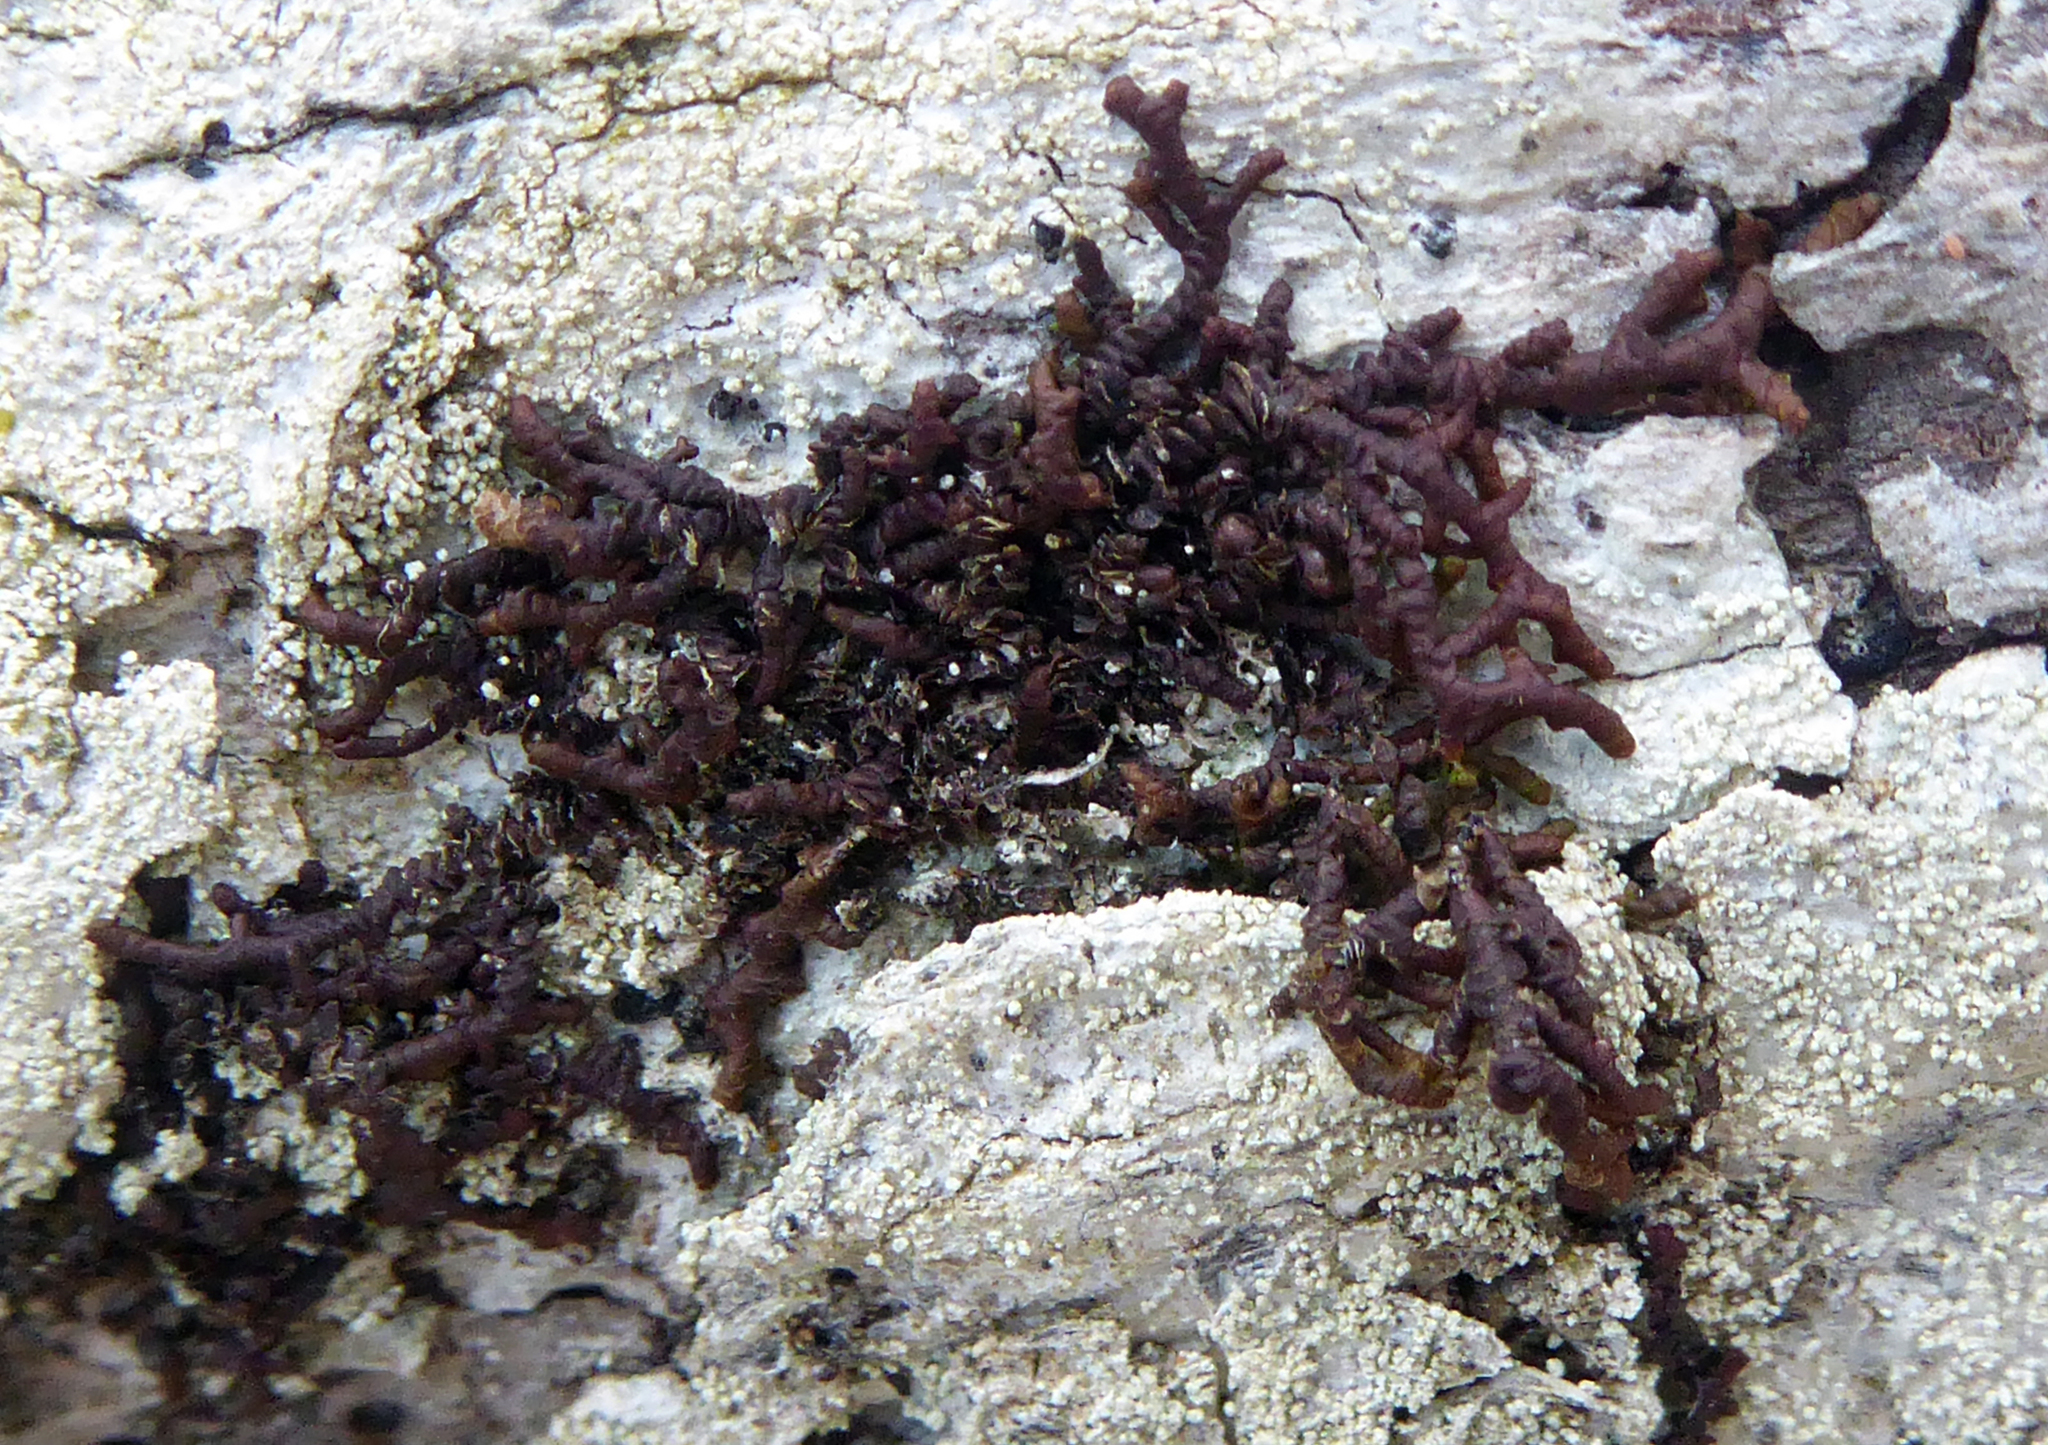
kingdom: Plantae
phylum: Marchantiophyta
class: Jungermanniopsida
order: Porellales
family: Frullaniaceae
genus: Frullania
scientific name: Frullania fugax
